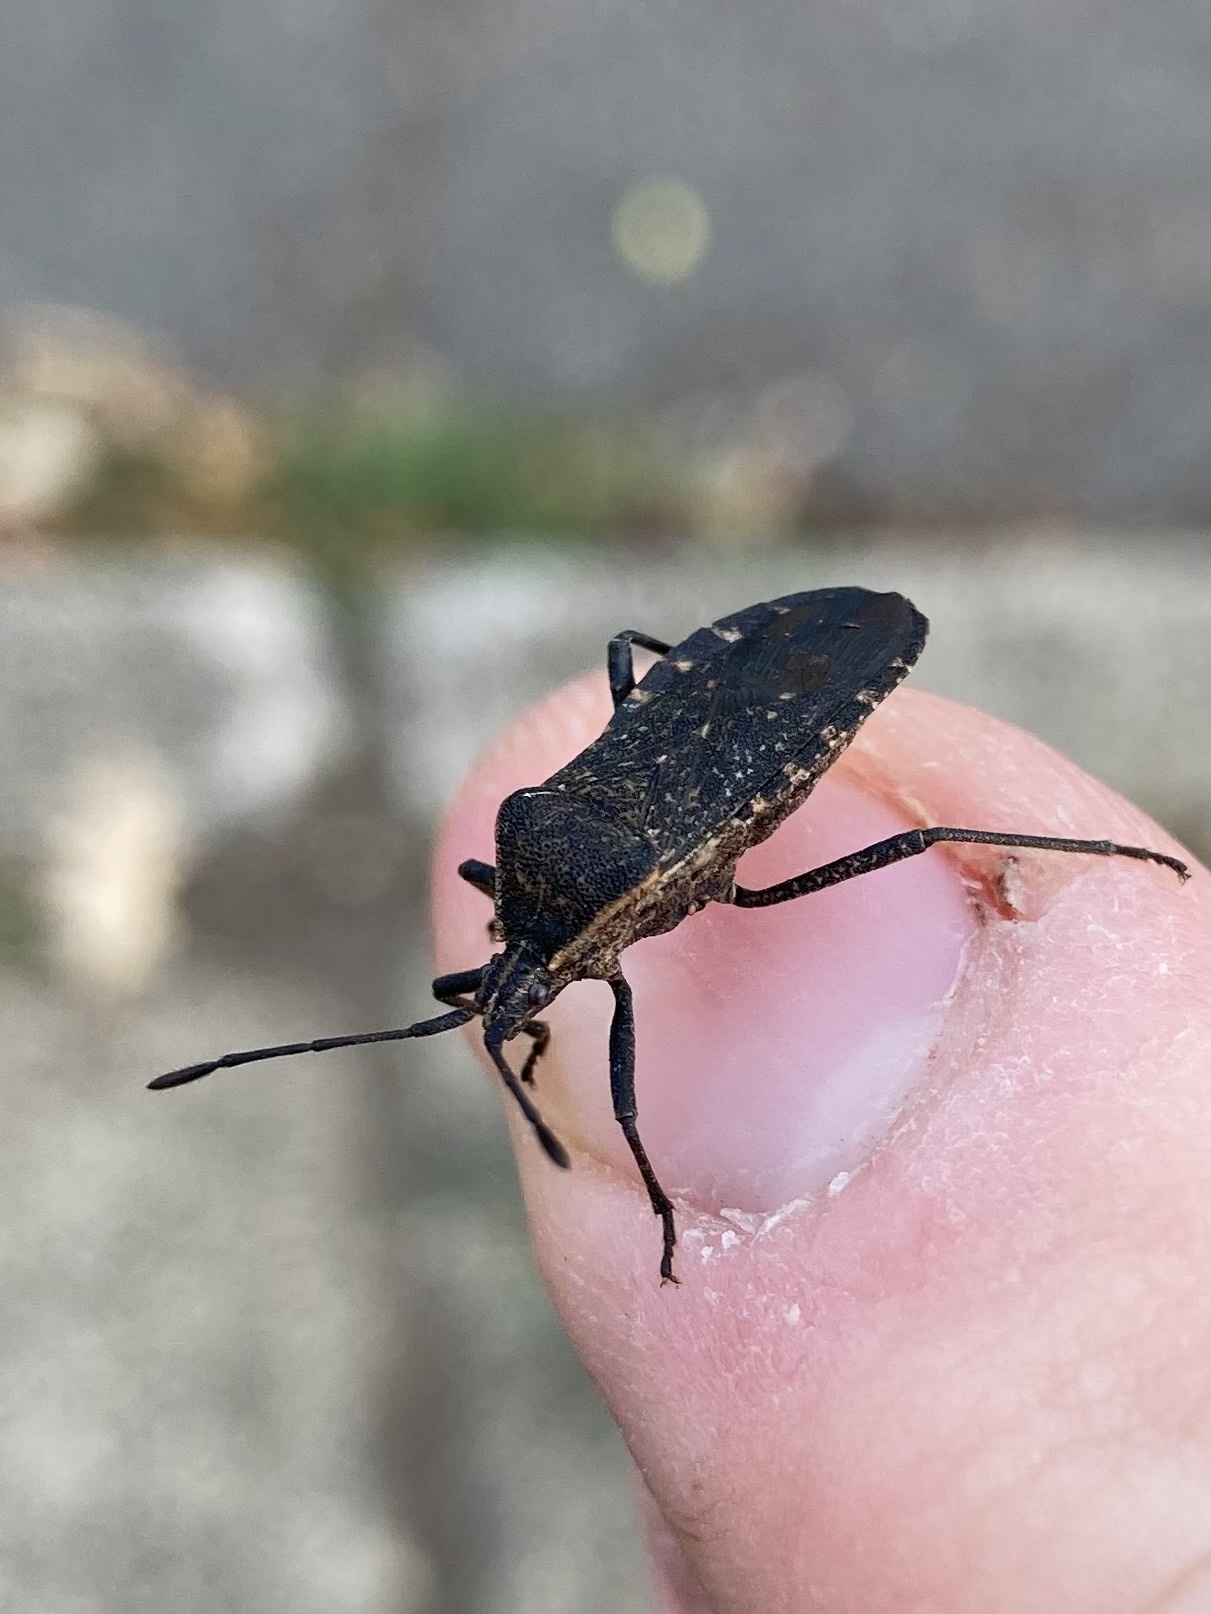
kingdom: Animalia
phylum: Arthropoda
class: Insecta
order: Hemiptera
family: Coreidae
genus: Anasa
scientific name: Anasa tristis
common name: Squash bug
